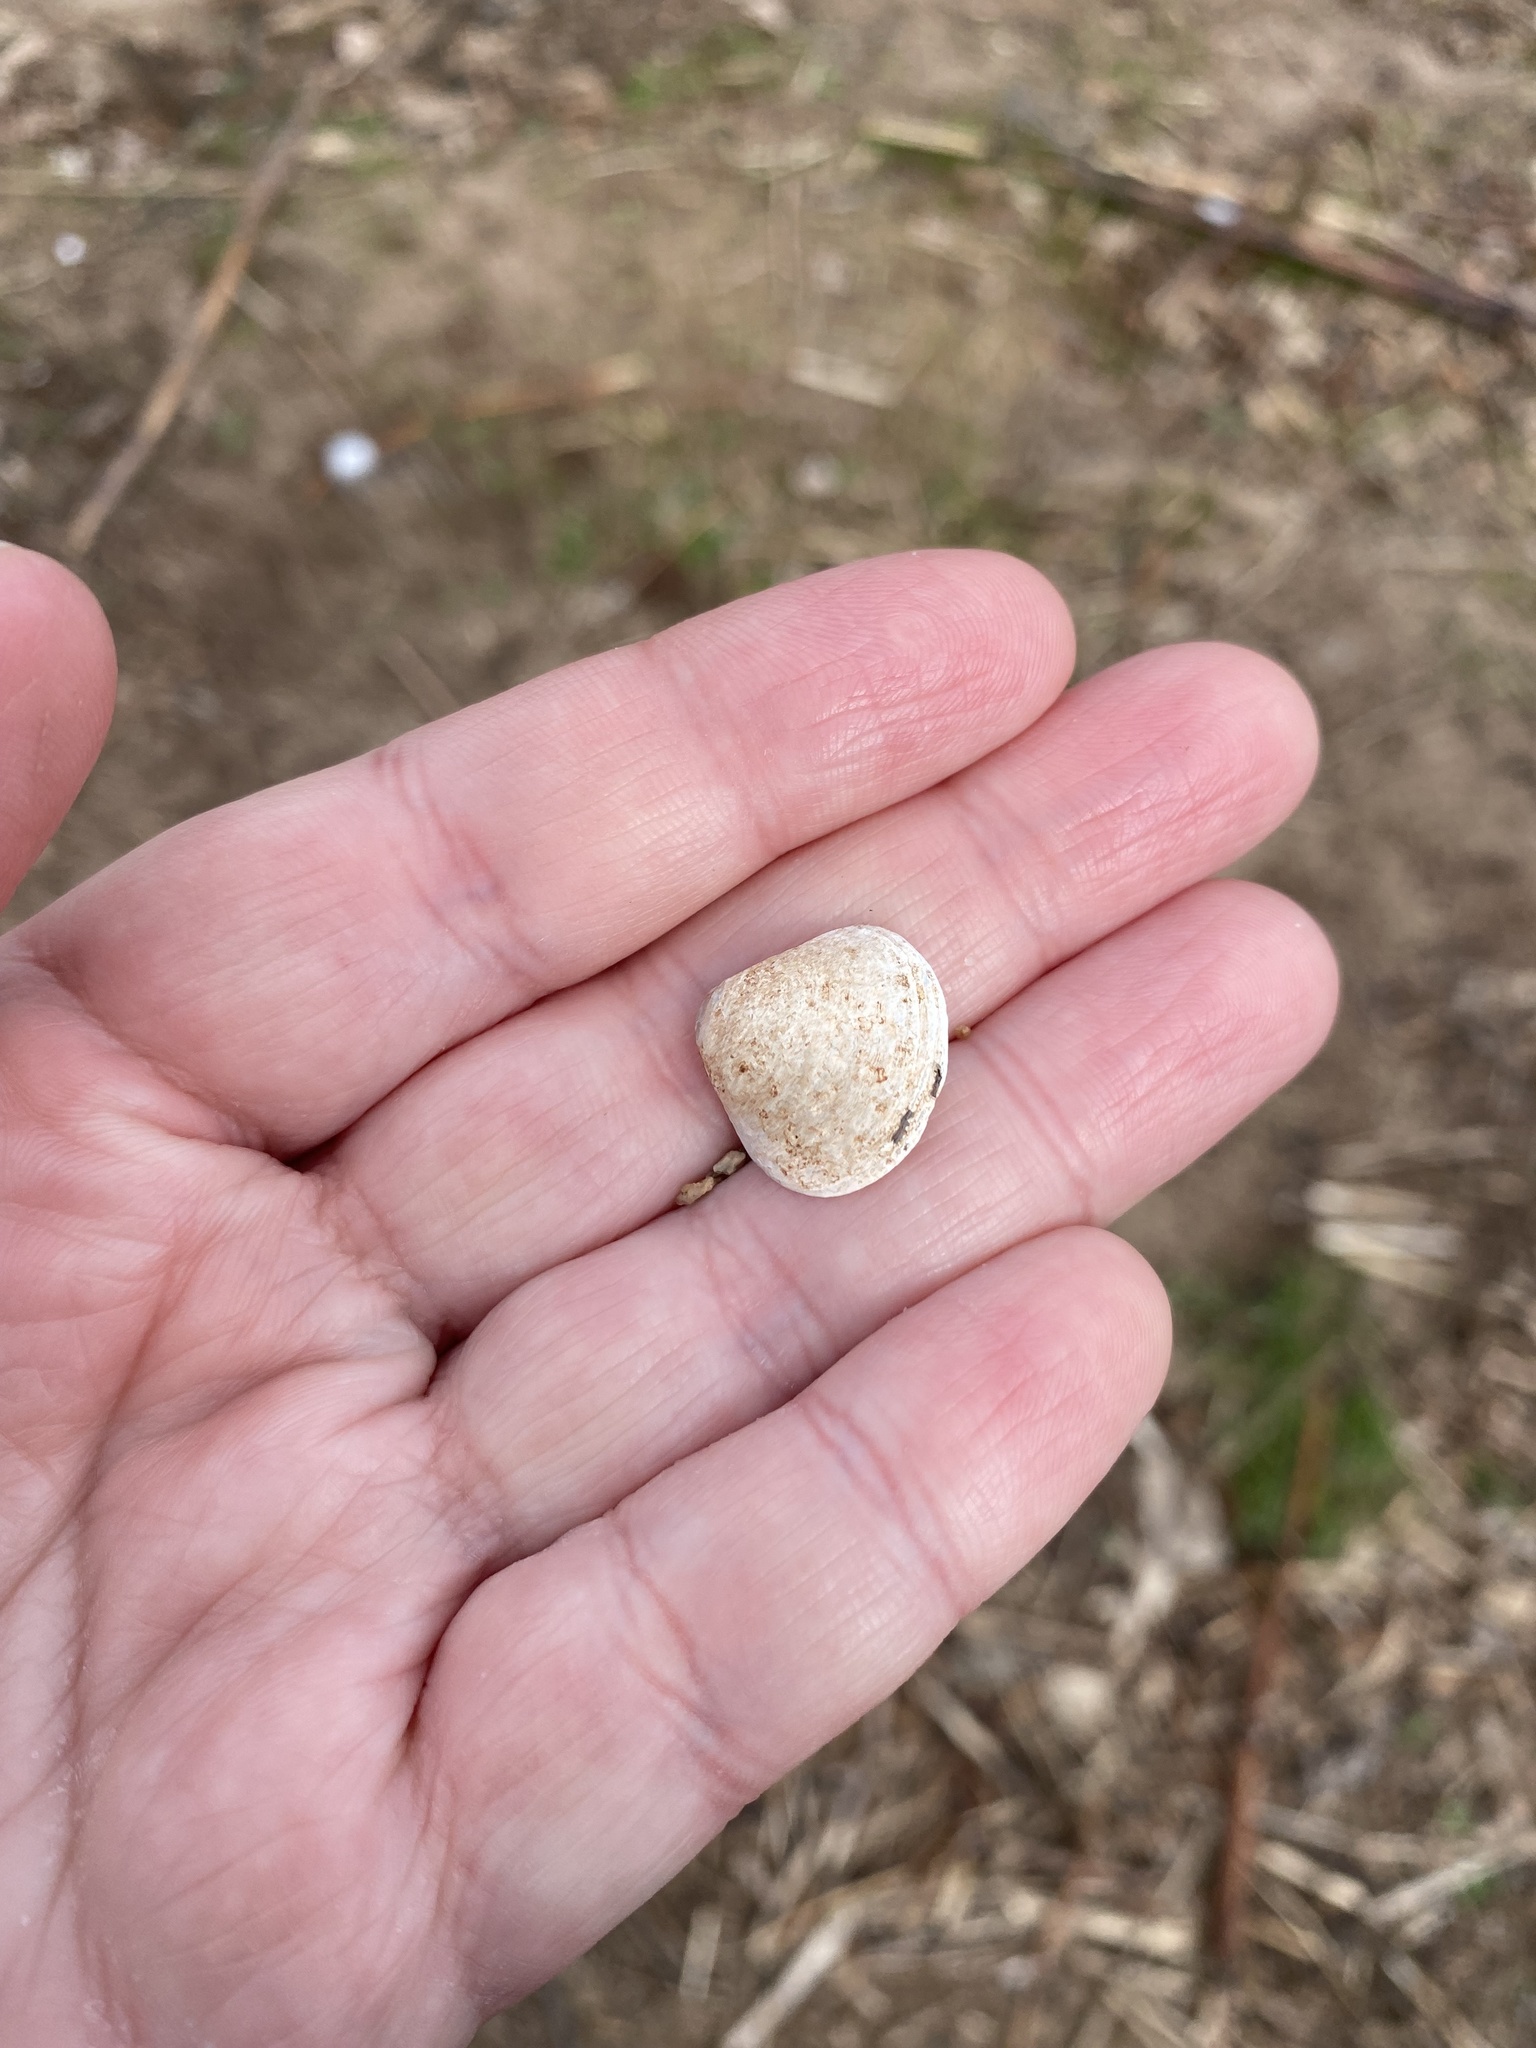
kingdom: Animalia
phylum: Mollusca
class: Bivalvia
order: Venerida
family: Cyrenidae
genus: Corbicula
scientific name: Corbicula fluminea
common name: Asian clam
